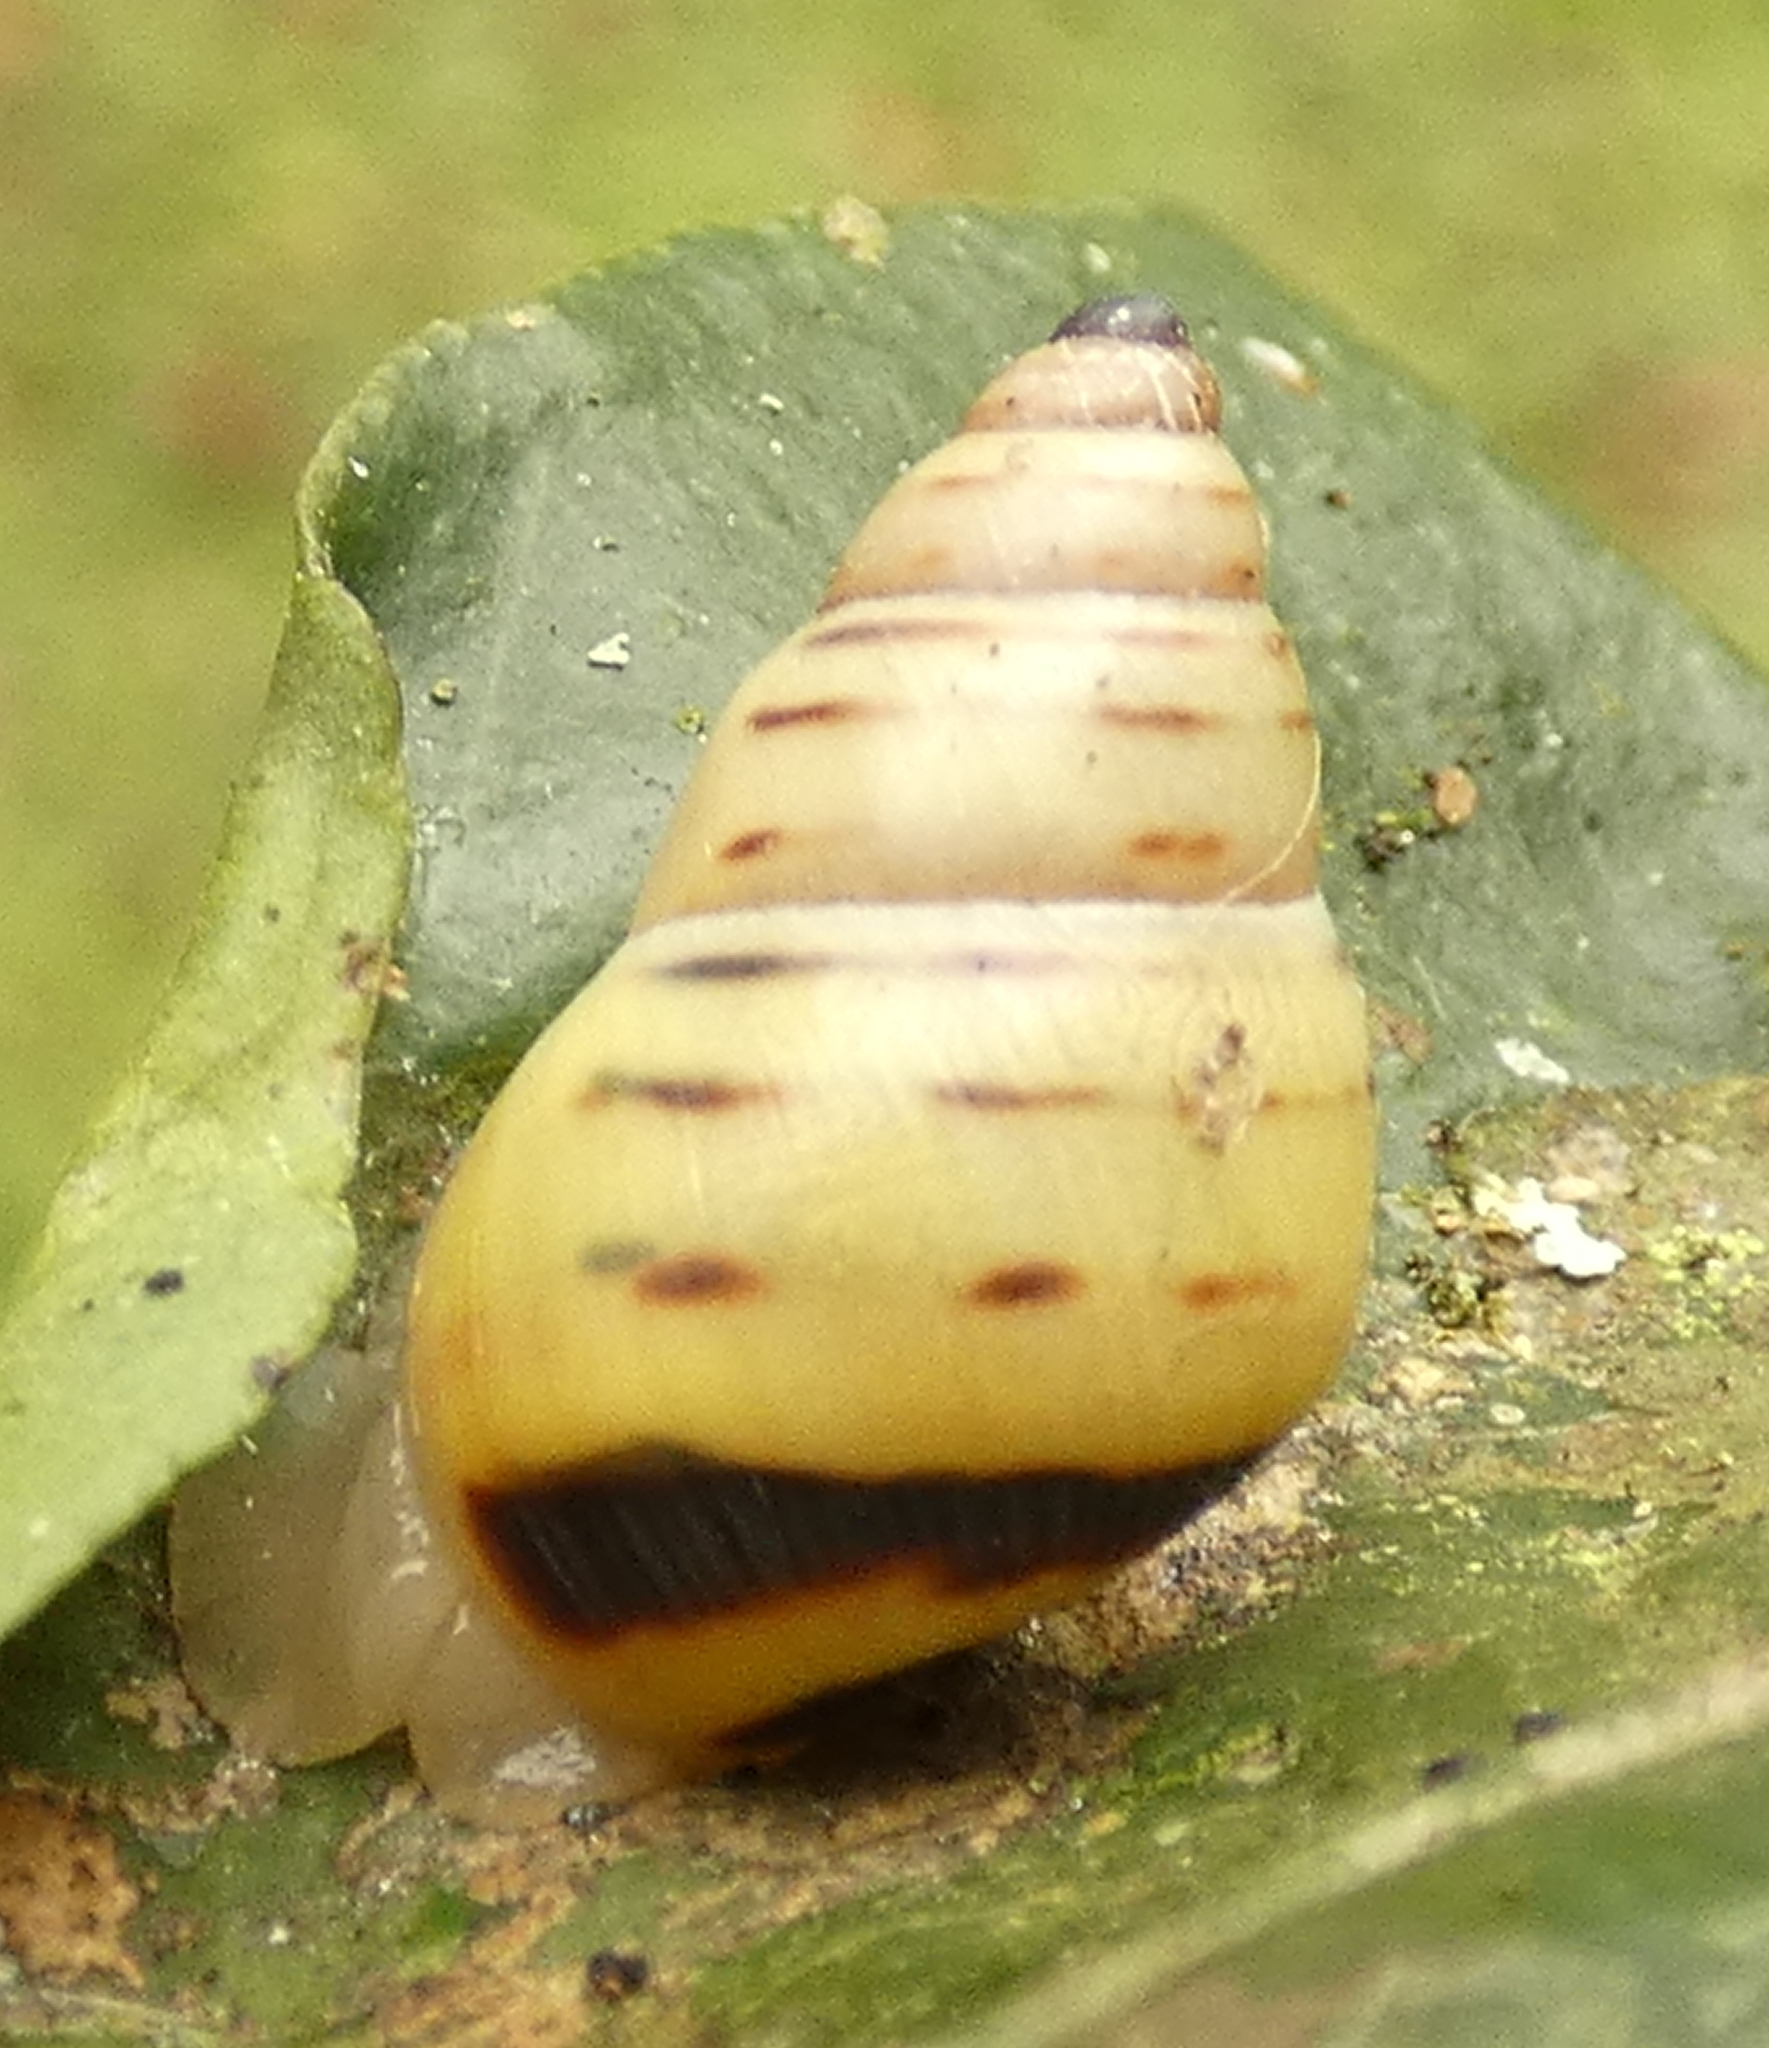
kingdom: Animalia
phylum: Mollusca
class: Gastropoda
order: Stylommatophora
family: Bulimulidae
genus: Drymaeus
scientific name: Drymaeus
